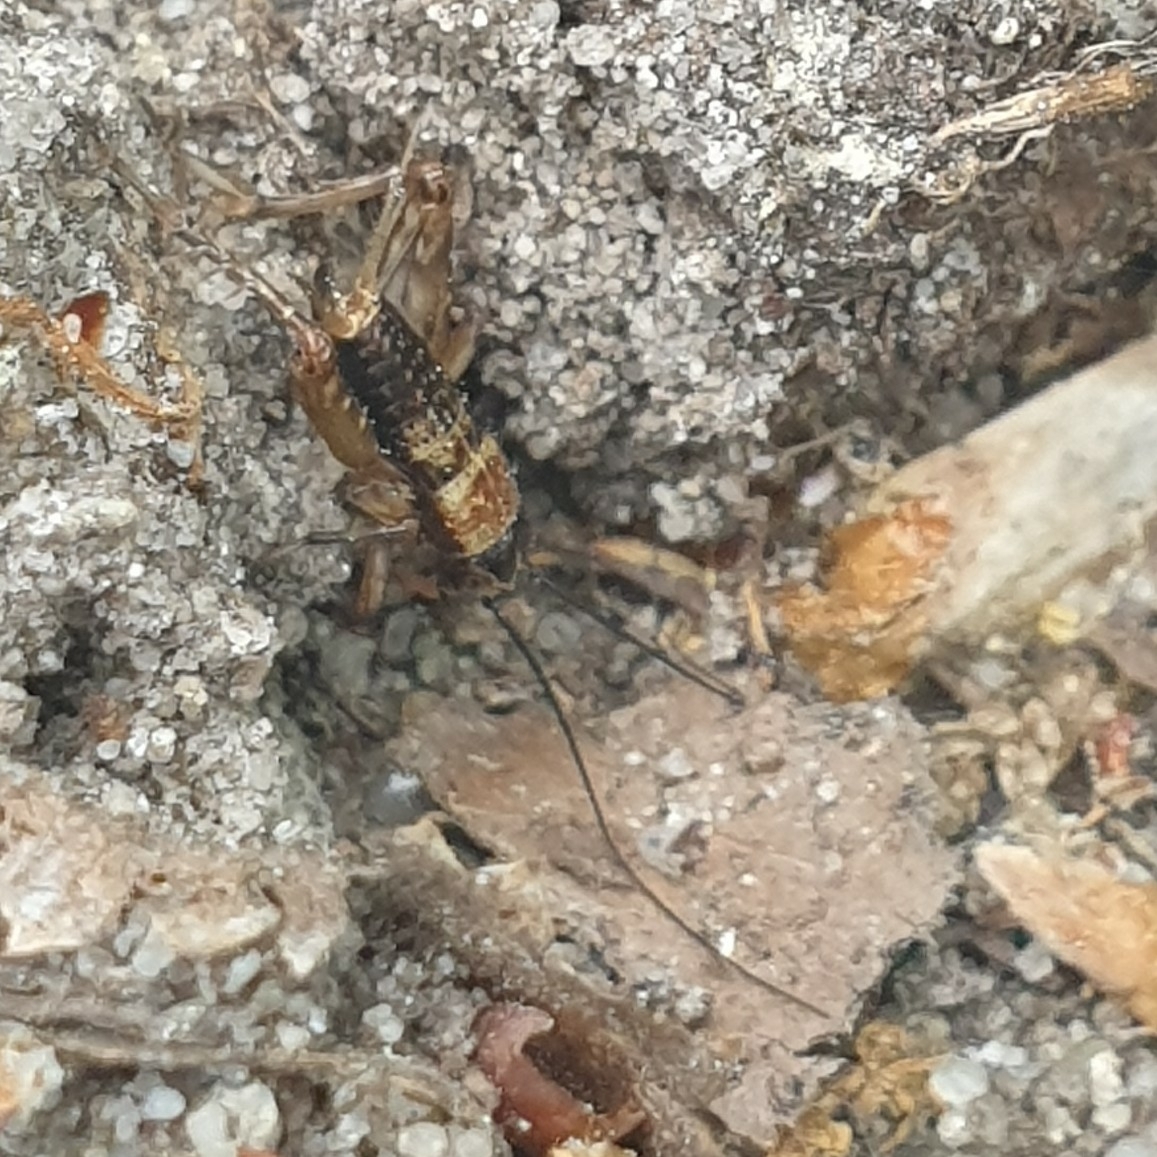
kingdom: Animalia
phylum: Arthropoda
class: Insecta
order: Orthoptera
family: Trigonidiidae
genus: Nemobius
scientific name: Nemobius sylvestris
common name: Wood-cricket
